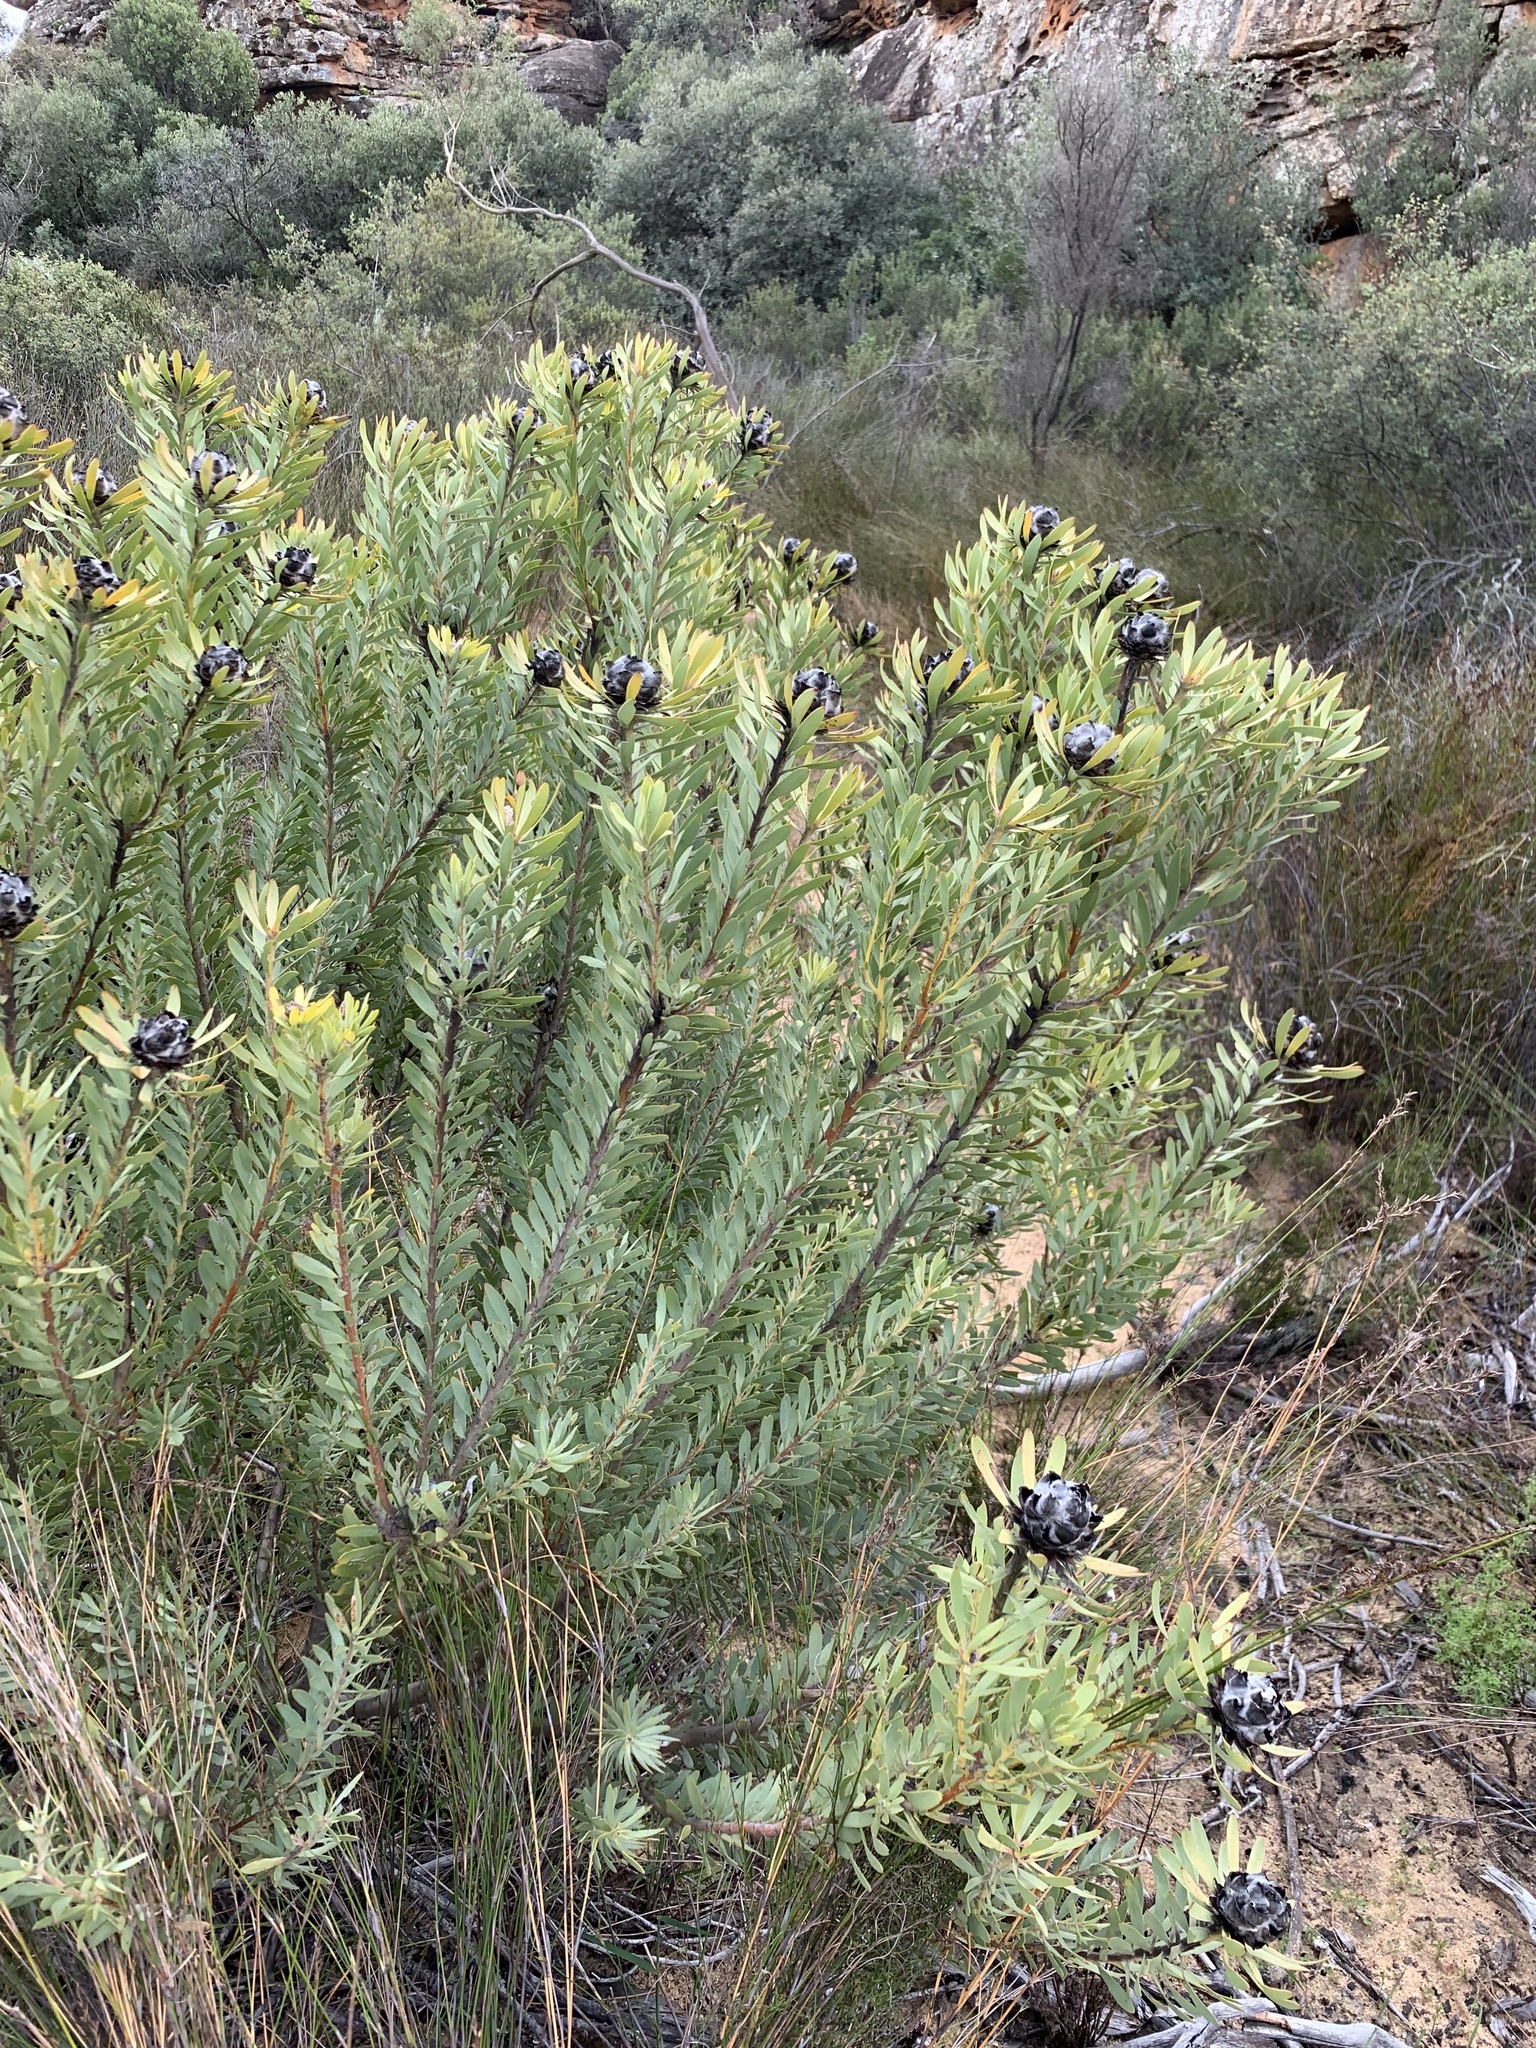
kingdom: Plantae
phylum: Tracheophyta
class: Magnoliopsida
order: Proteales
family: Proteaceae
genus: Leucadendron
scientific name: Leucadendron pubescens
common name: Grey conebush
